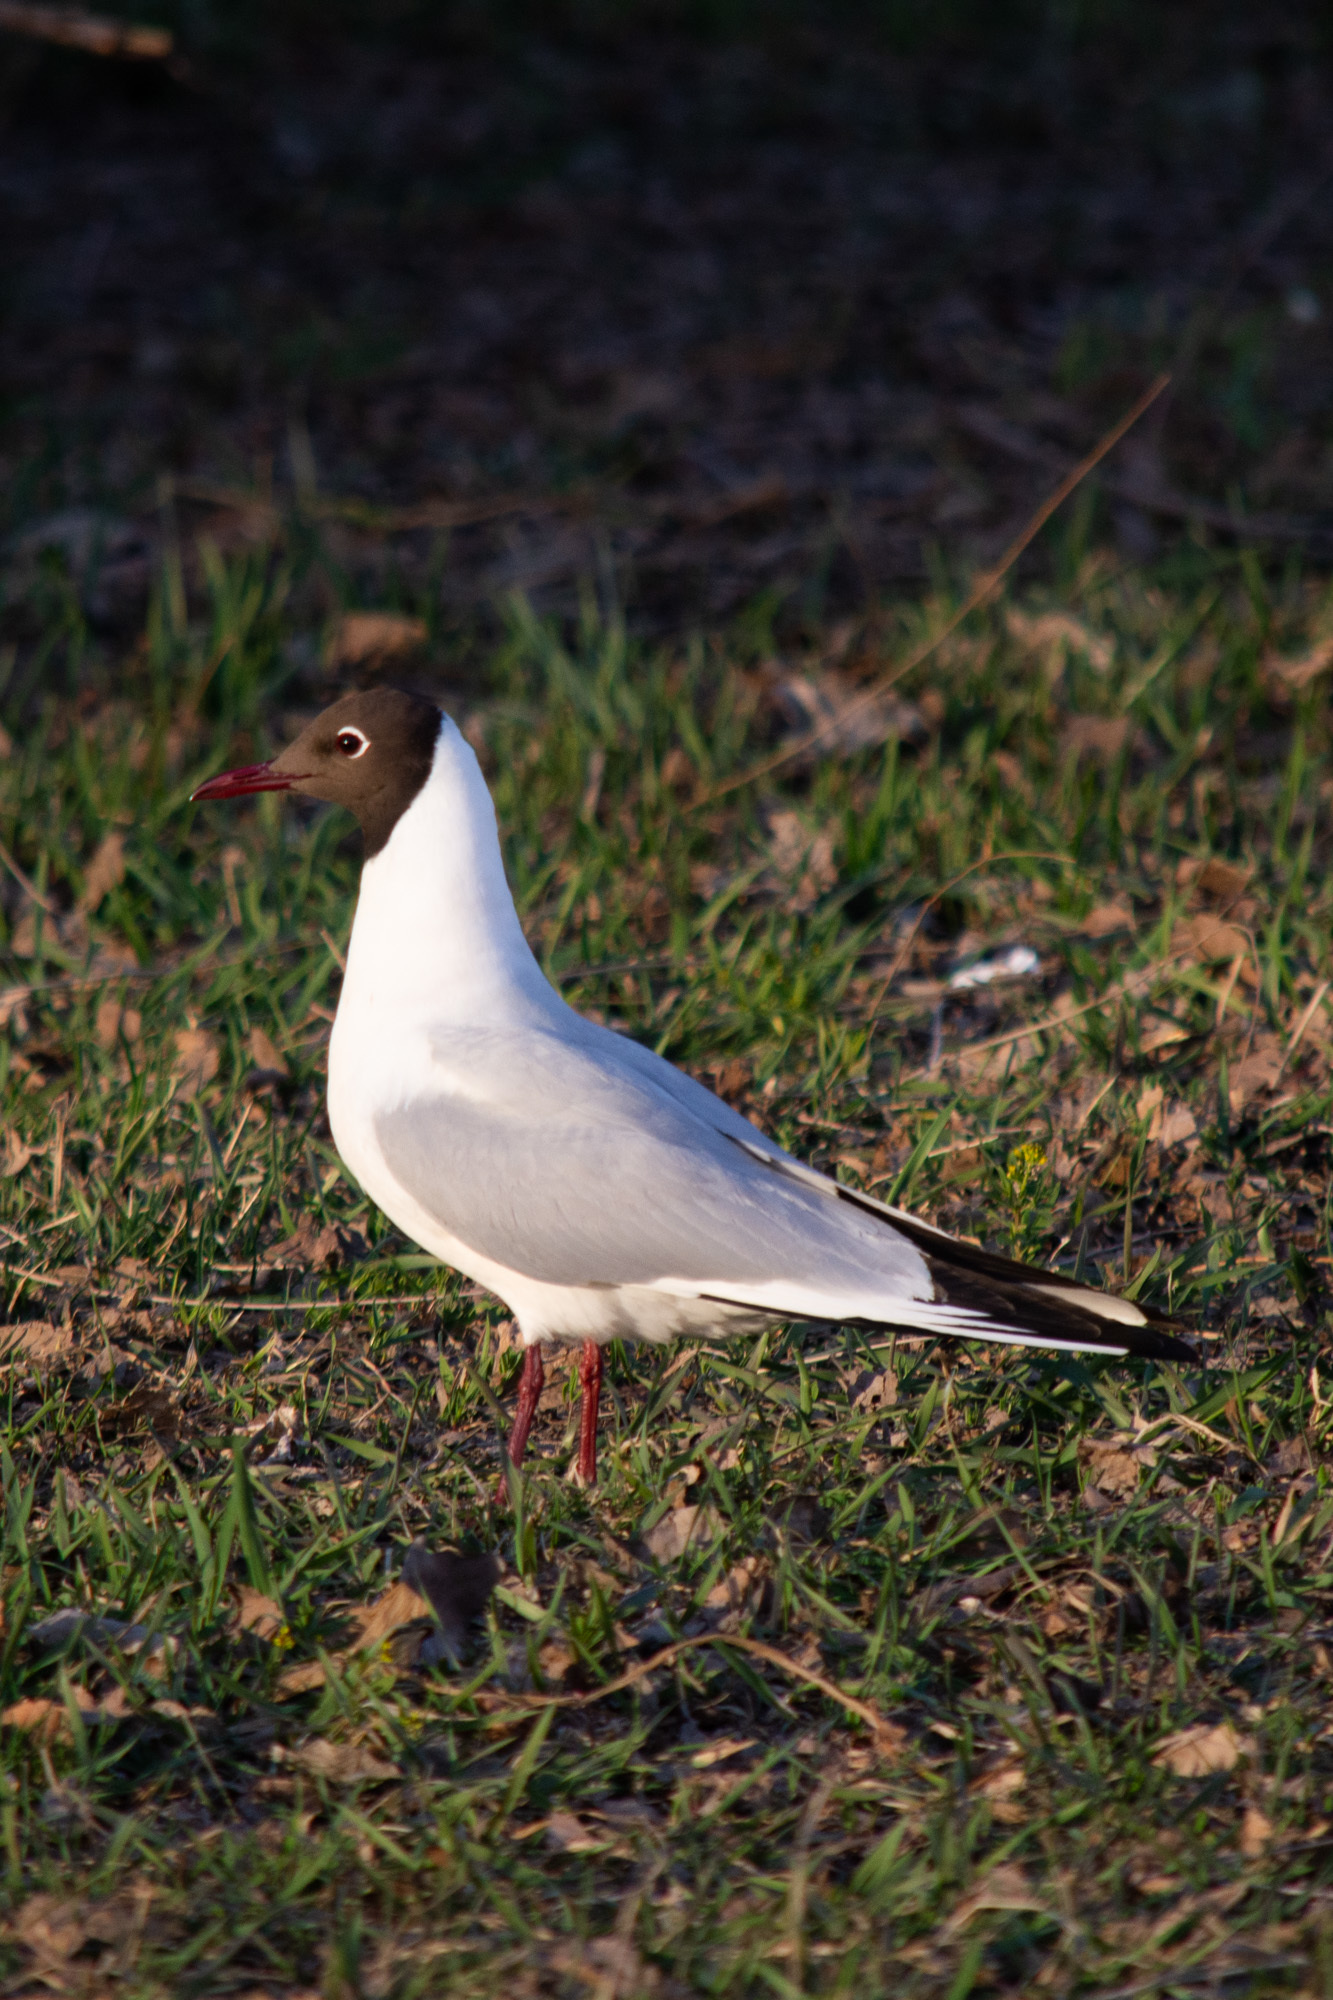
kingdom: Animalia
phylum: Chordata
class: Aves
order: Charadriiformes
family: Laridae
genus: Chroicocephalus
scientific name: Chroicocephalus ridibundus
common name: Black-headed gull
